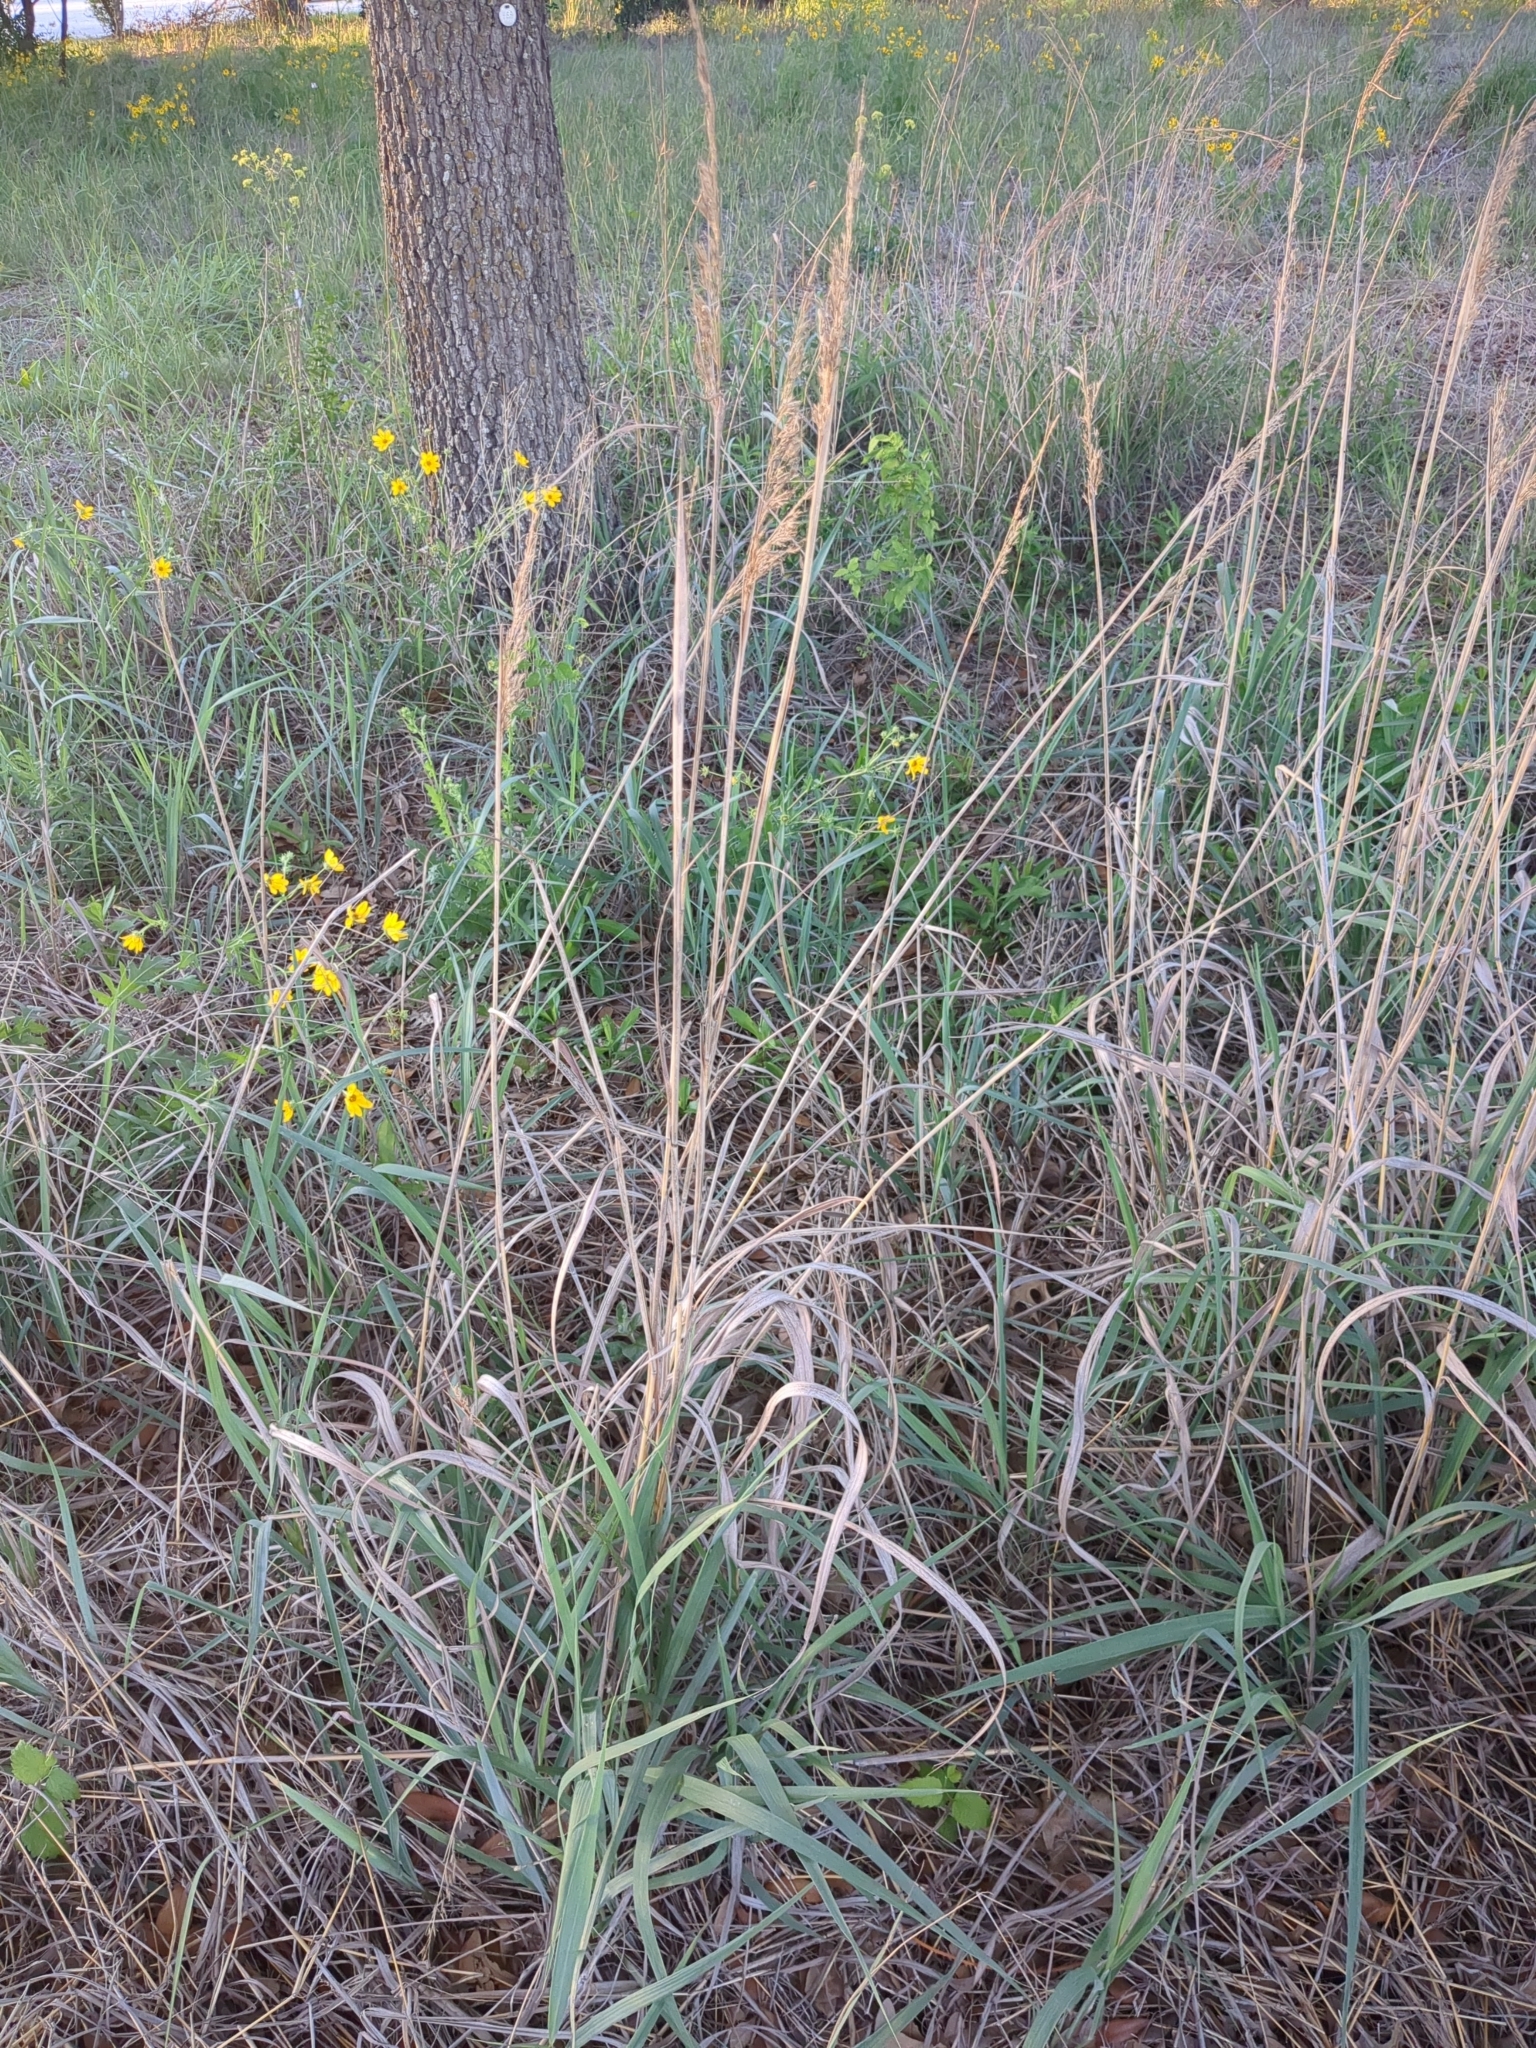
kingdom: Plantae
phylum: Tracheophyta
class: Liliopsida
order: Poales
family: Poaceae
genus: Sorghastrum
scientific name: Sorghastrum nutans
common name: Indian grass
